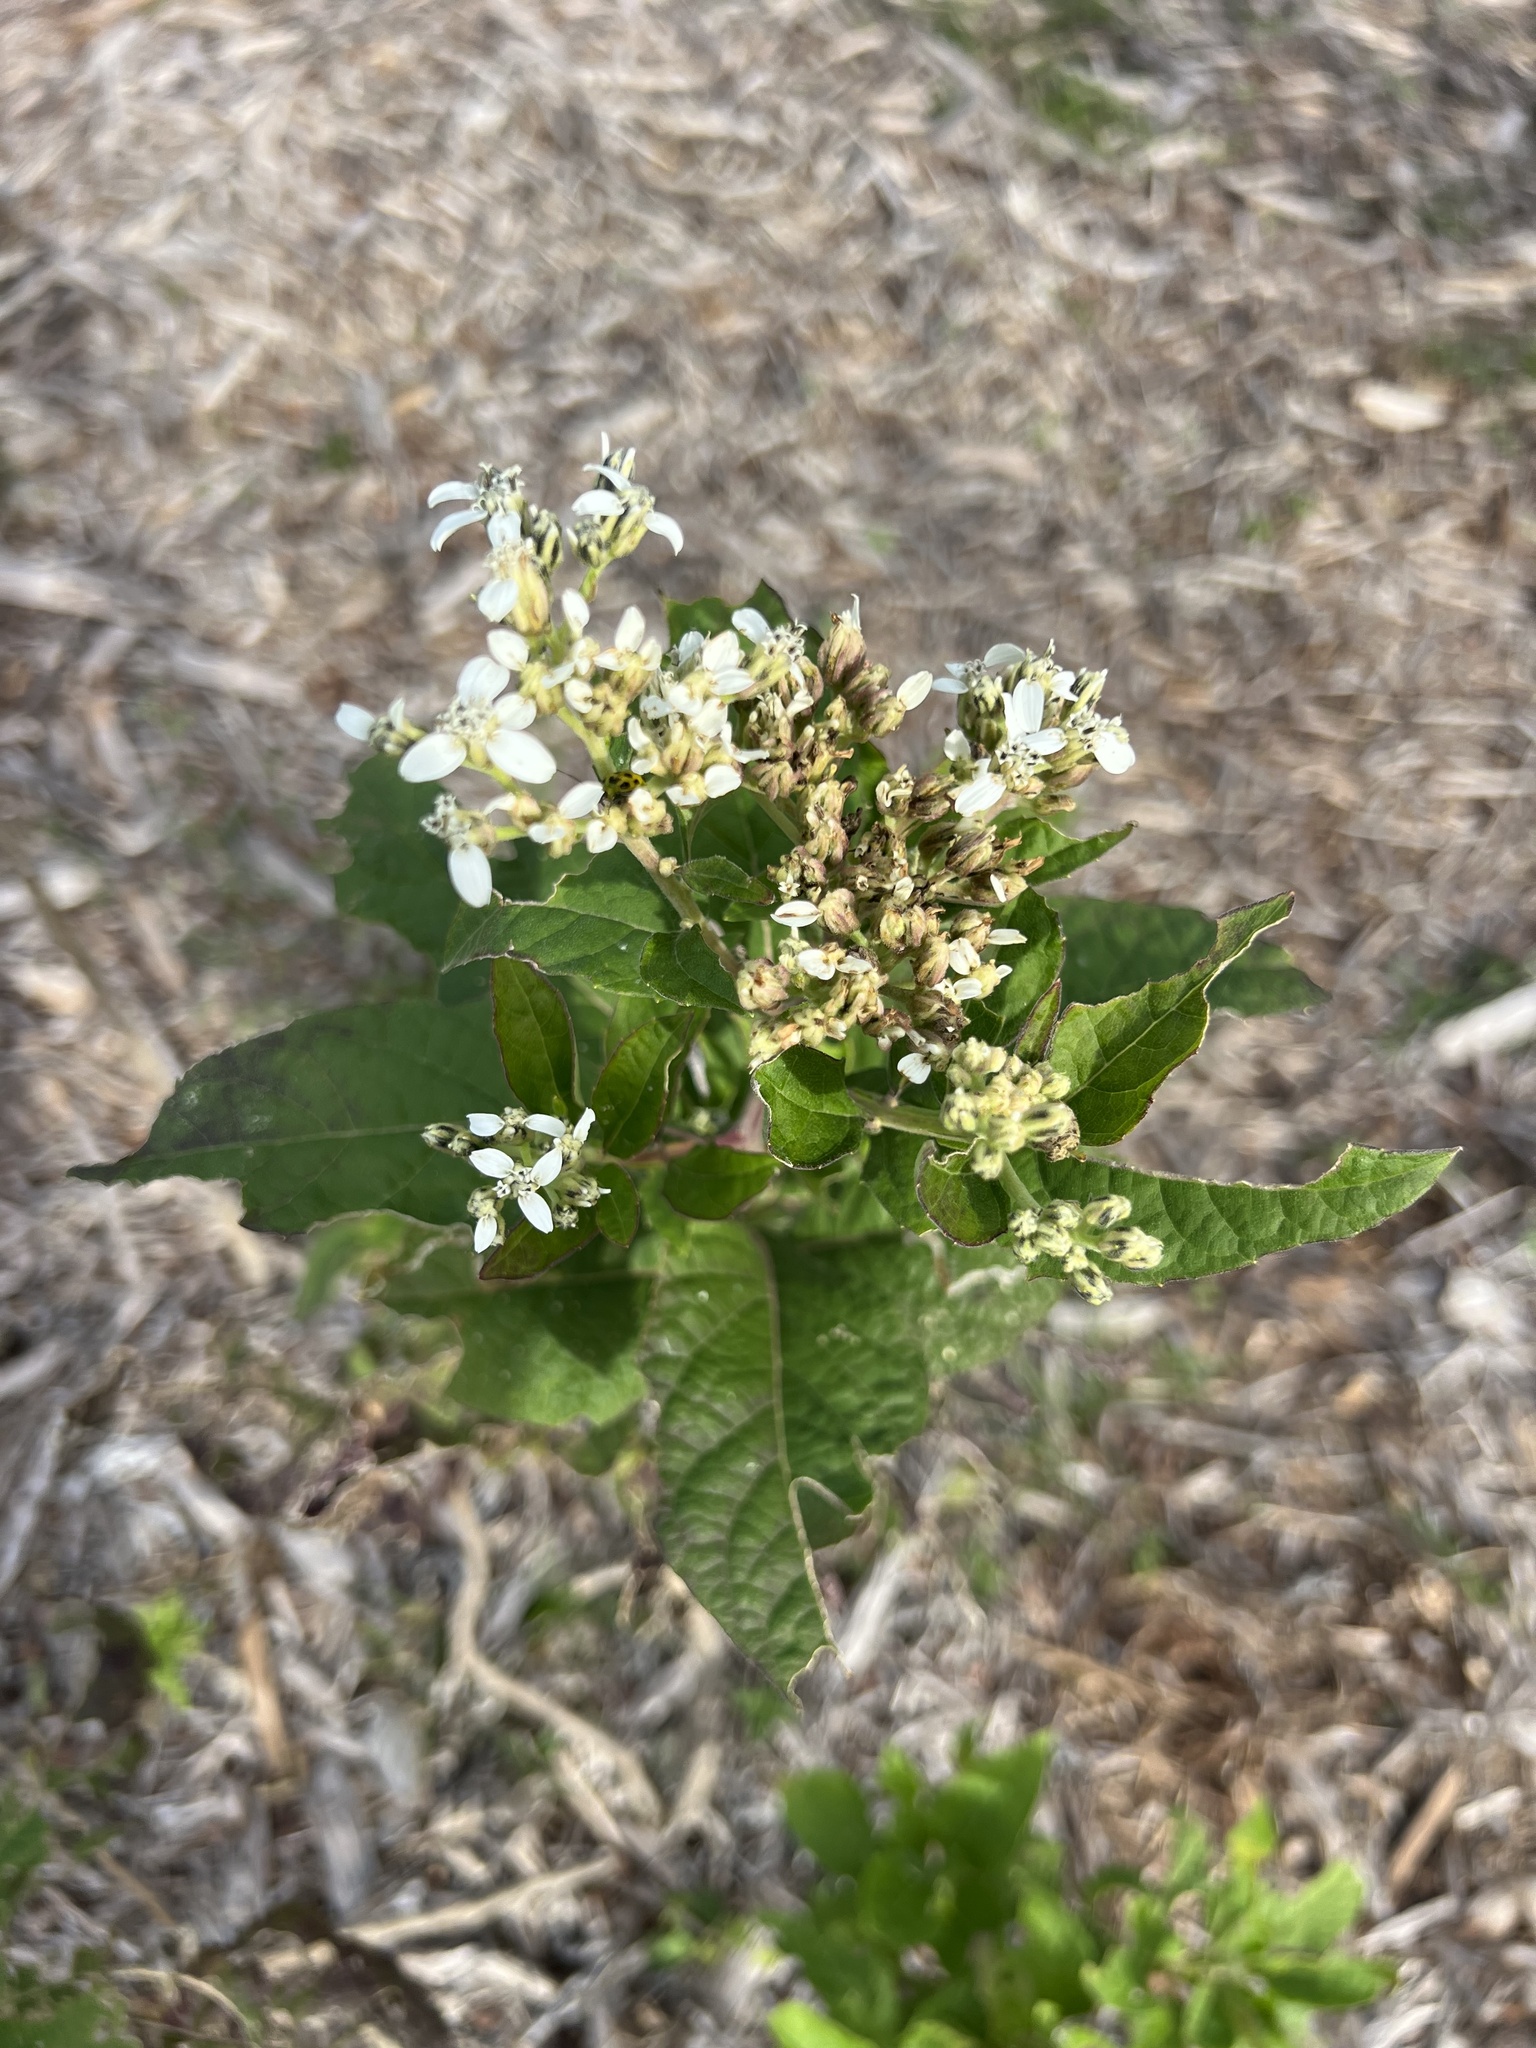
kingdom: Plantae
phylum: Tracheophyta
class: Magnoliopsida
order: Asterales
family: Asteraceae
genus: Verbesina
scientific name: Verbesina virginica
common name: Frostweed
